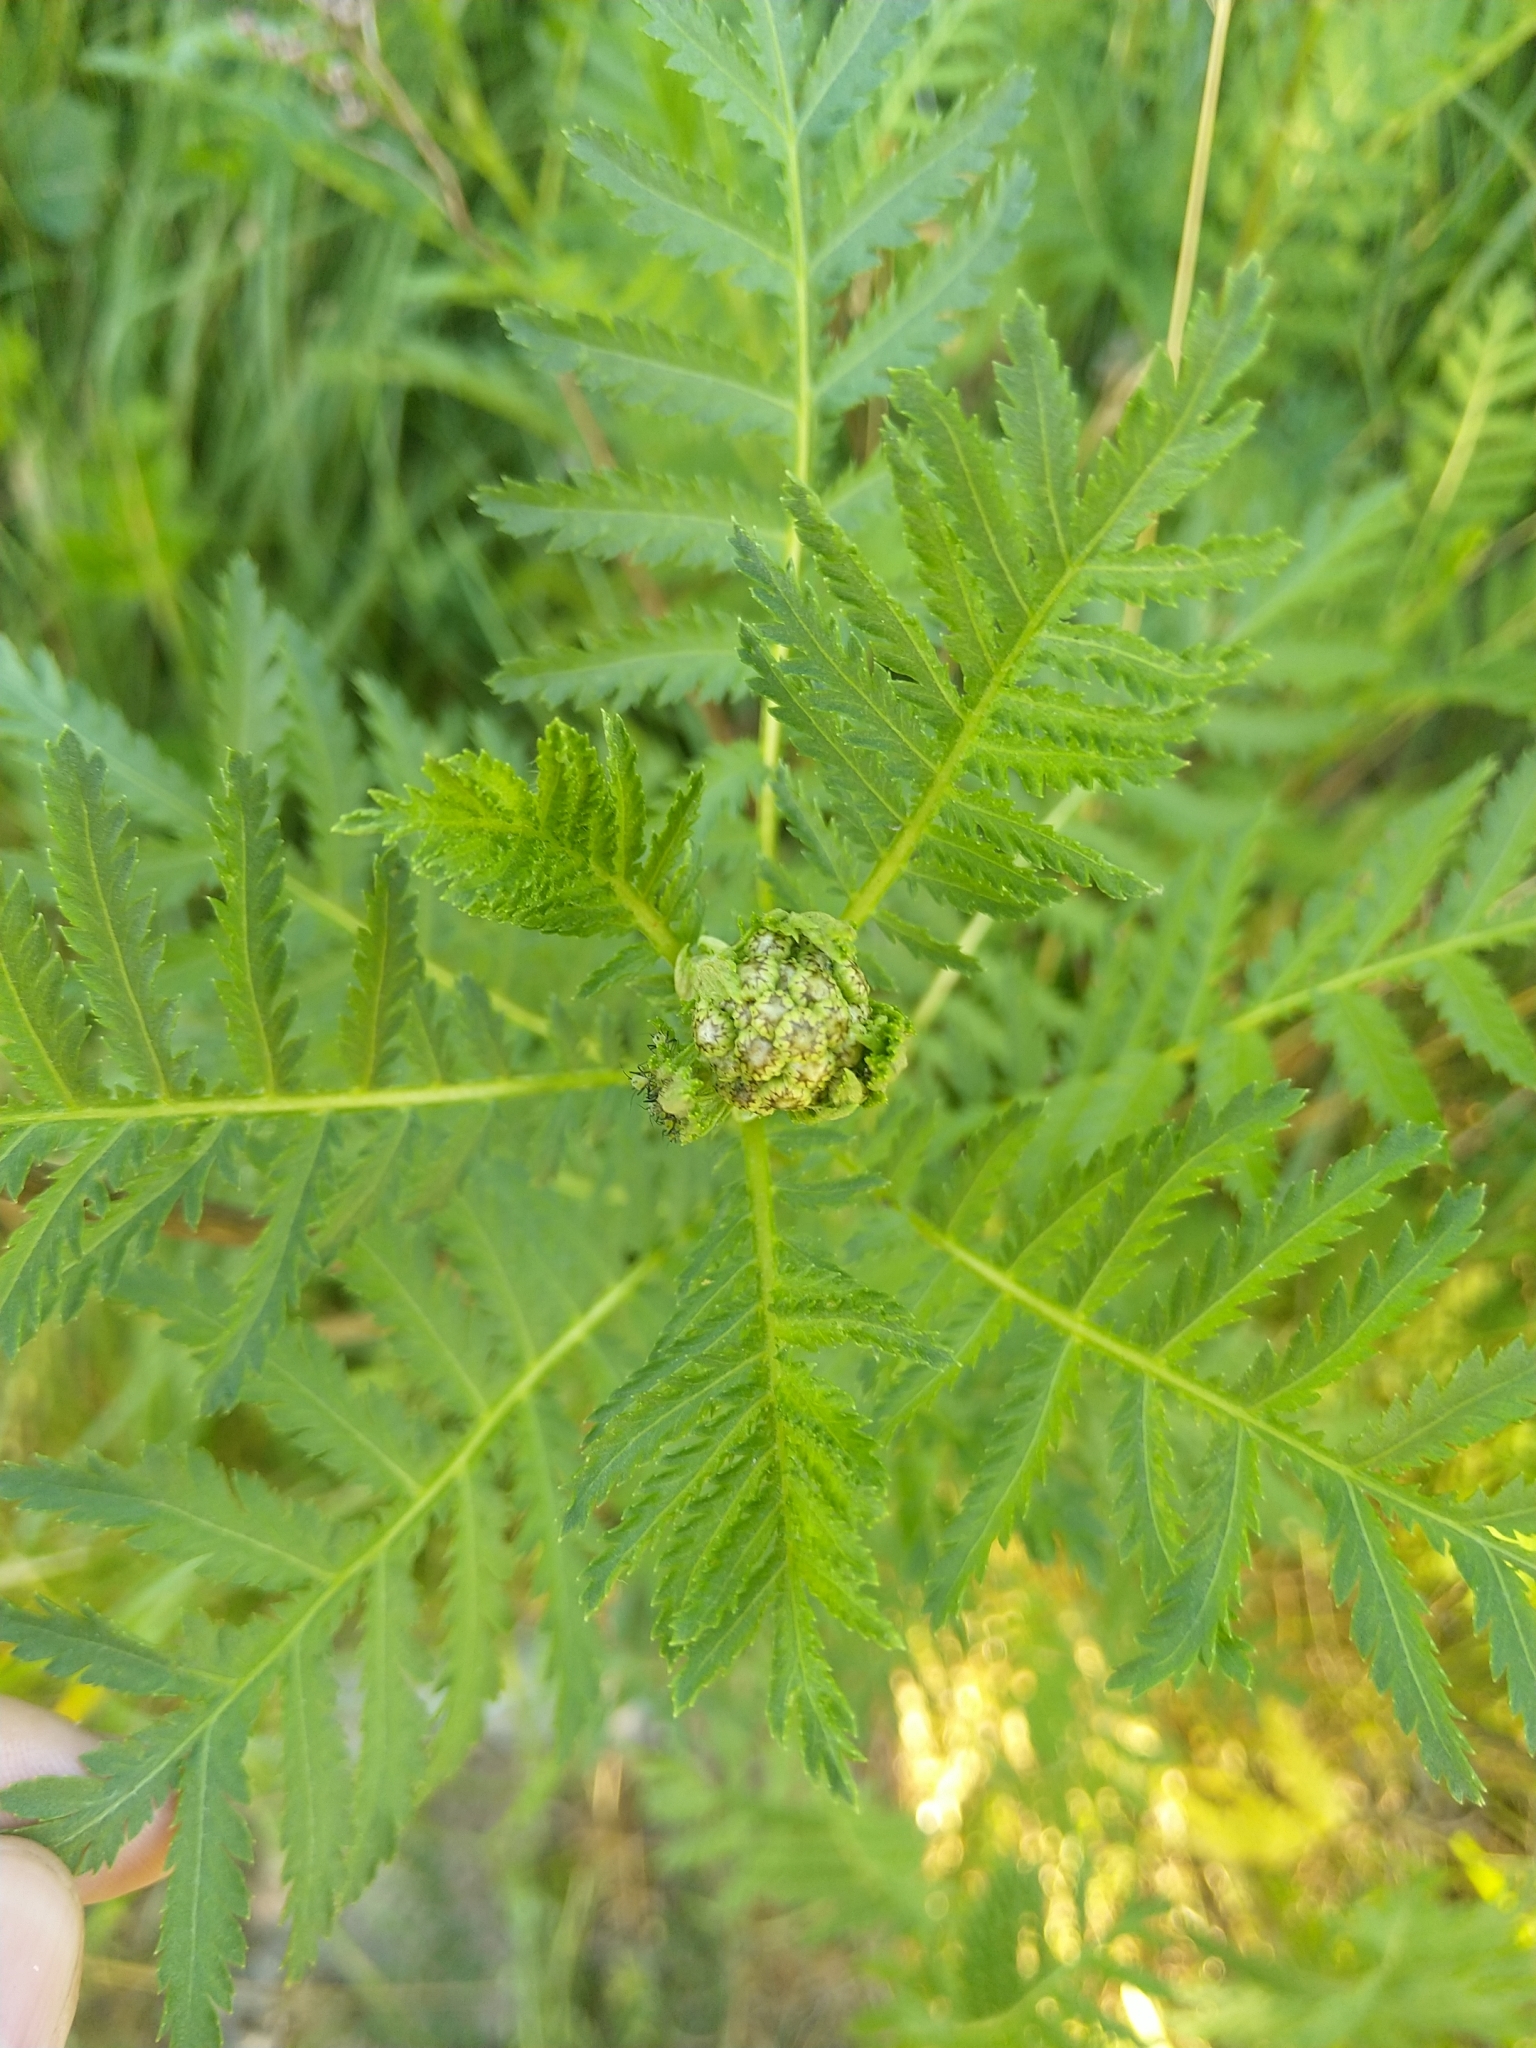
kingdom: Plantae
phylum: Tracheophyta
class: Magnoliopsida
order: Asterales
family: Asteraceae
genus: Tanacetum
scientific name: Tanacetum vulgare
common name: Common tansy
